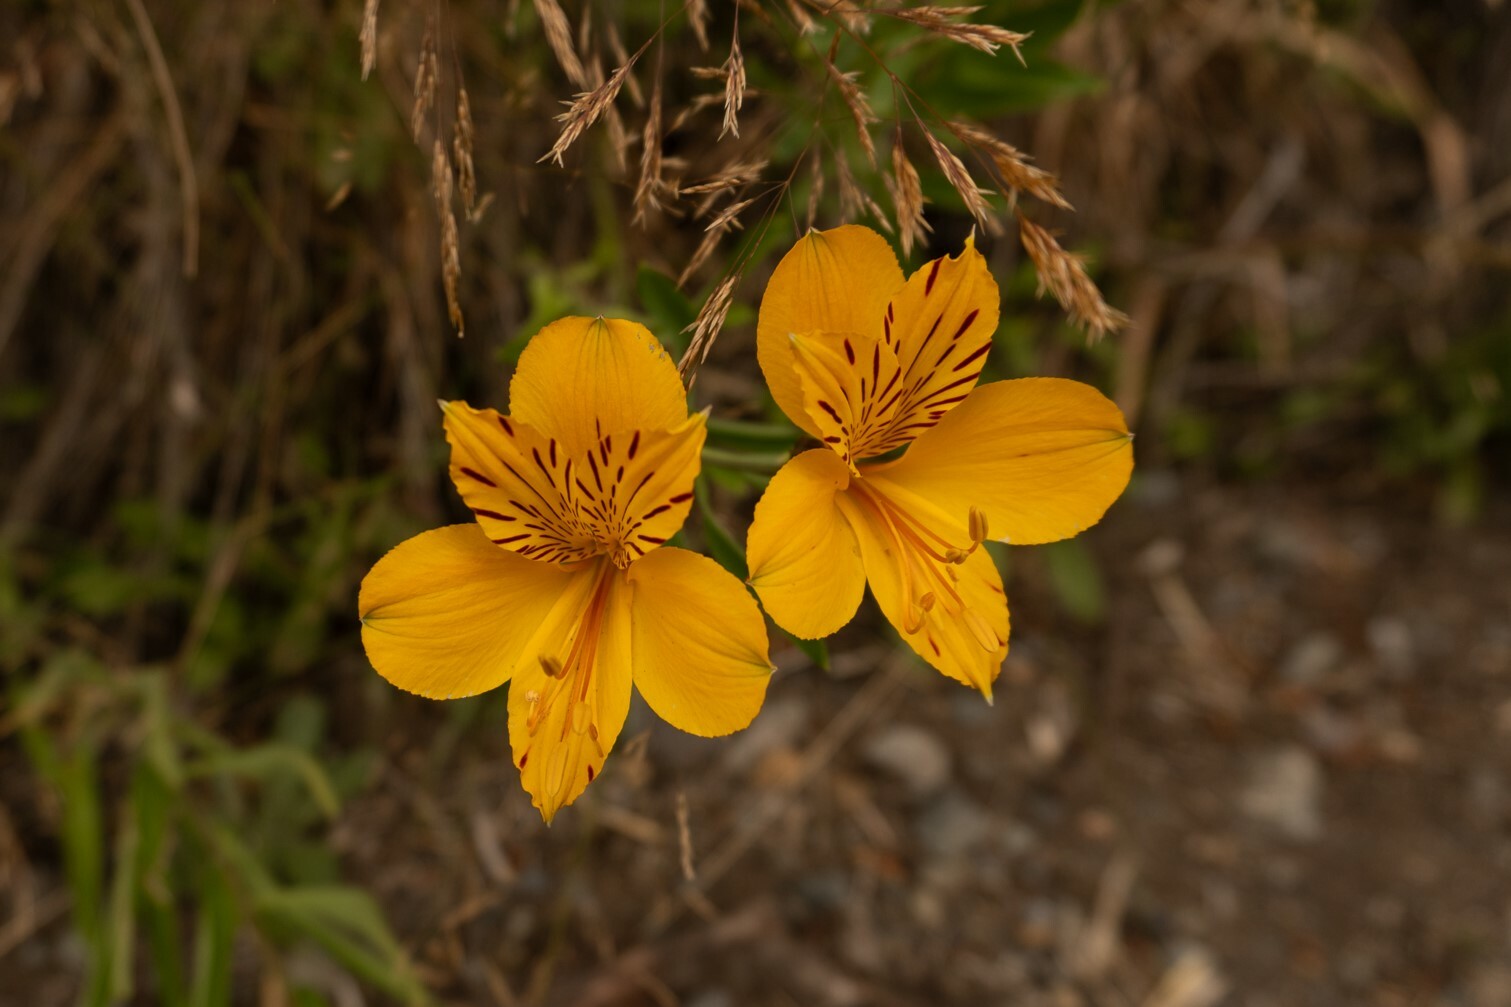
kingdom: Plantae
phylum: Tracheophyta
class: Liliopsida
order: Liliales
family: Alstroemeriaceae
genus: Alstroemeria
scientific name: Alstroemeria aurea
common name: Peruvian lily
